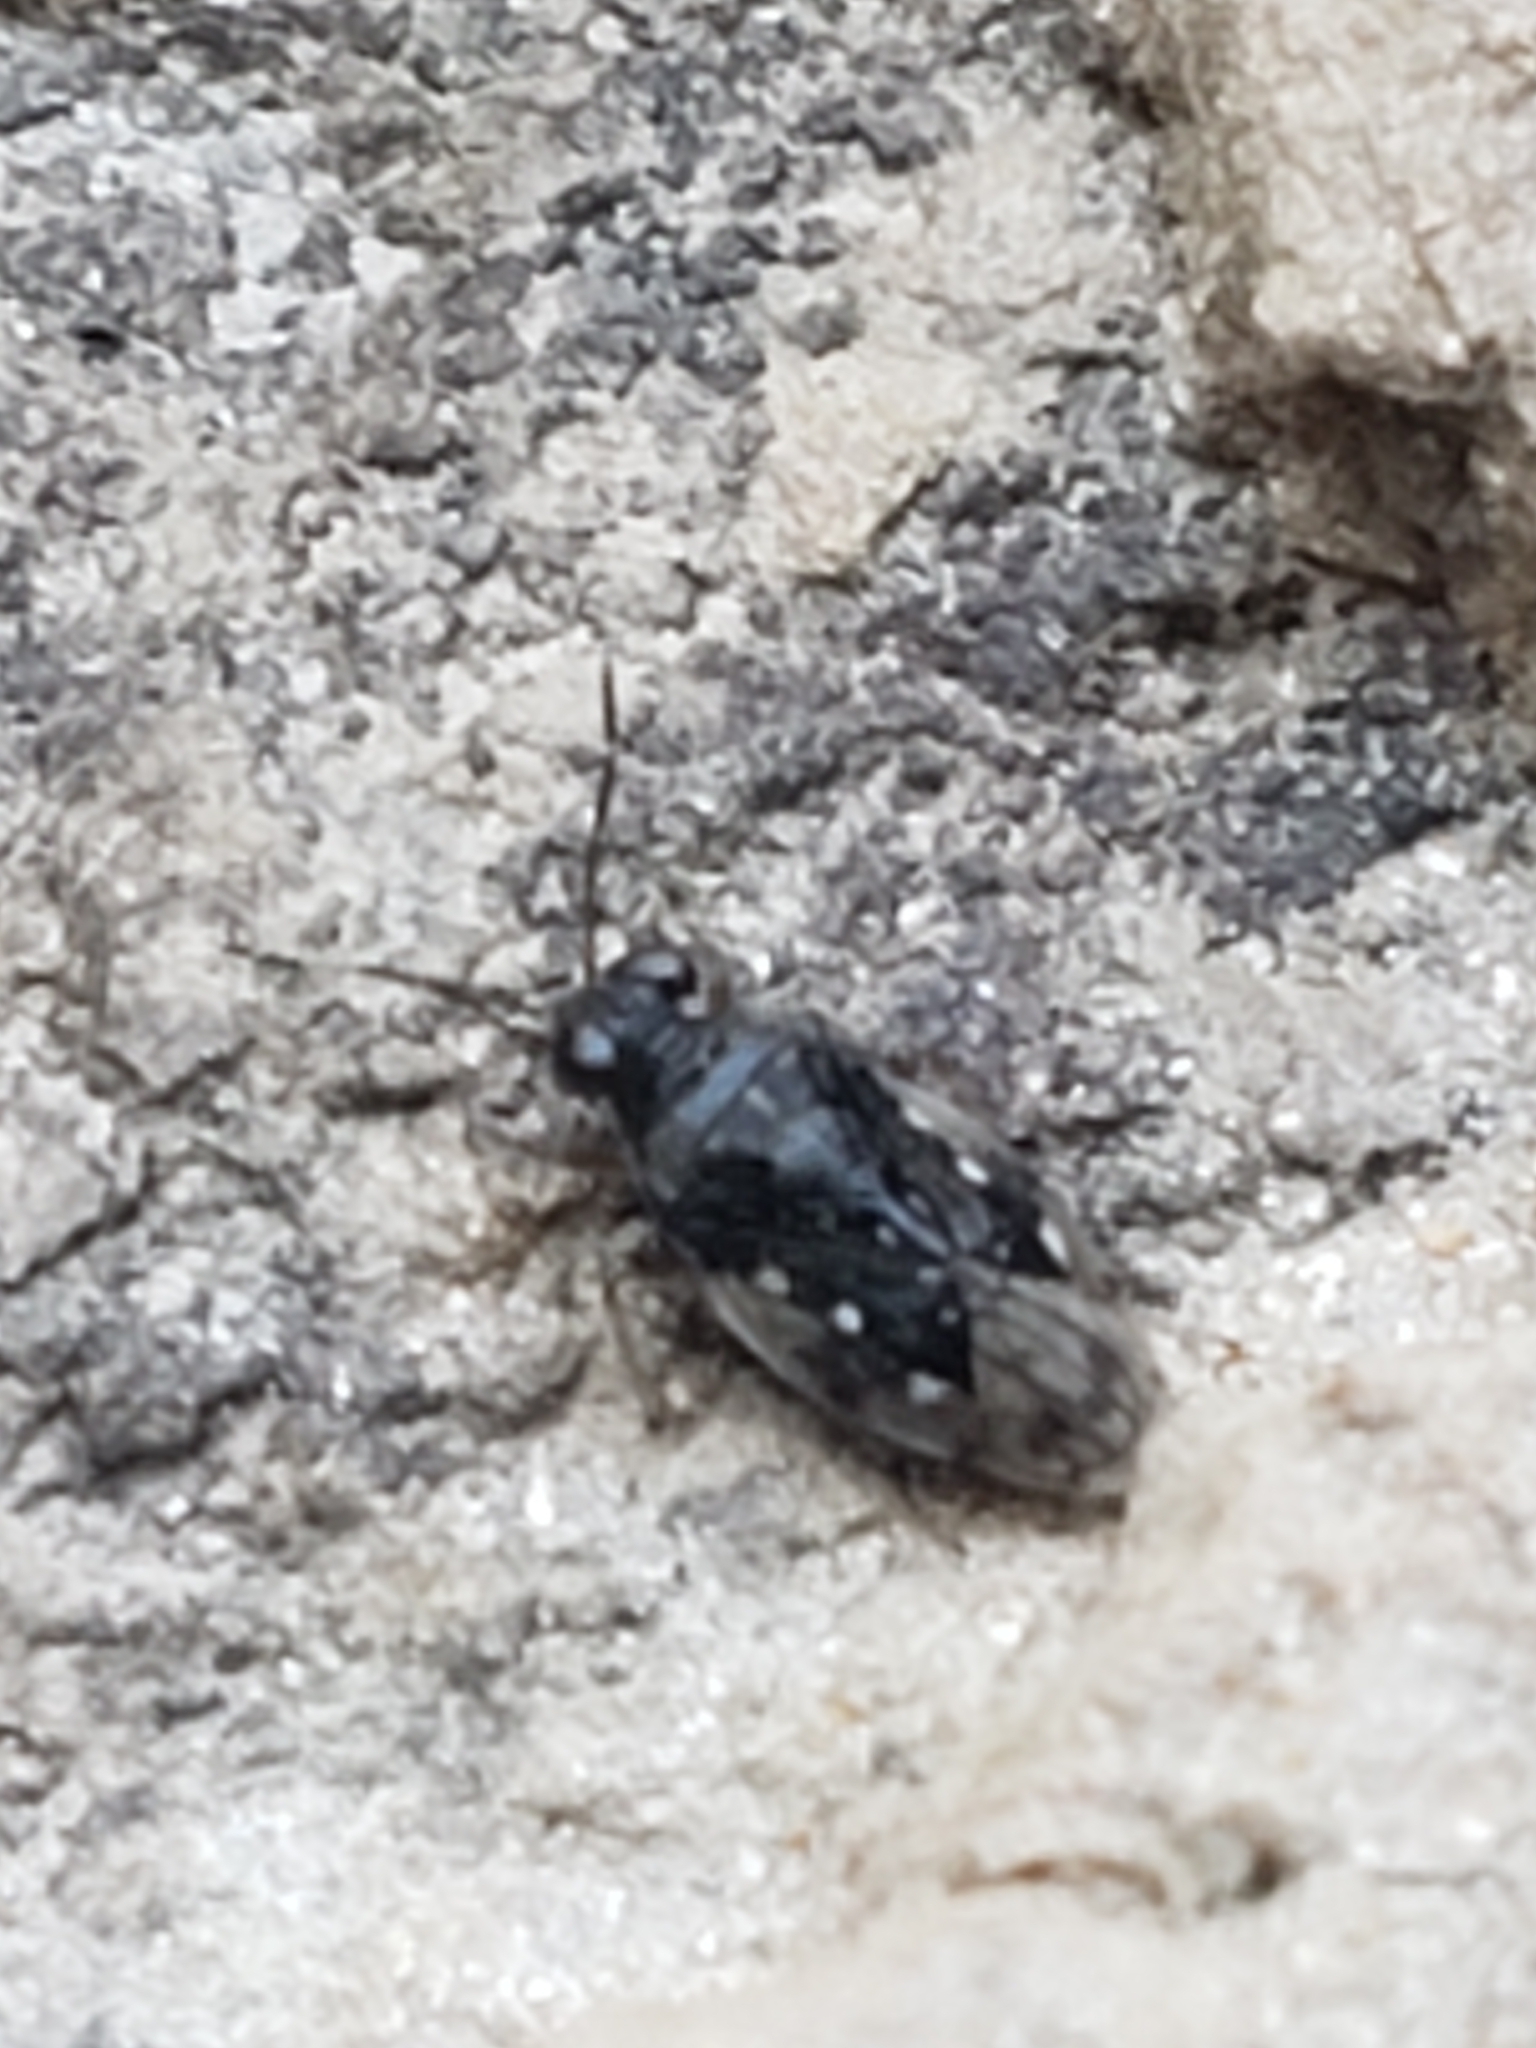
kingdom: Animalia
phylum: Arthropoda
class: Insecta
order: Hemiptera
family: Saldidae
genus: Micracanthia
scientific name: Micracanthia
